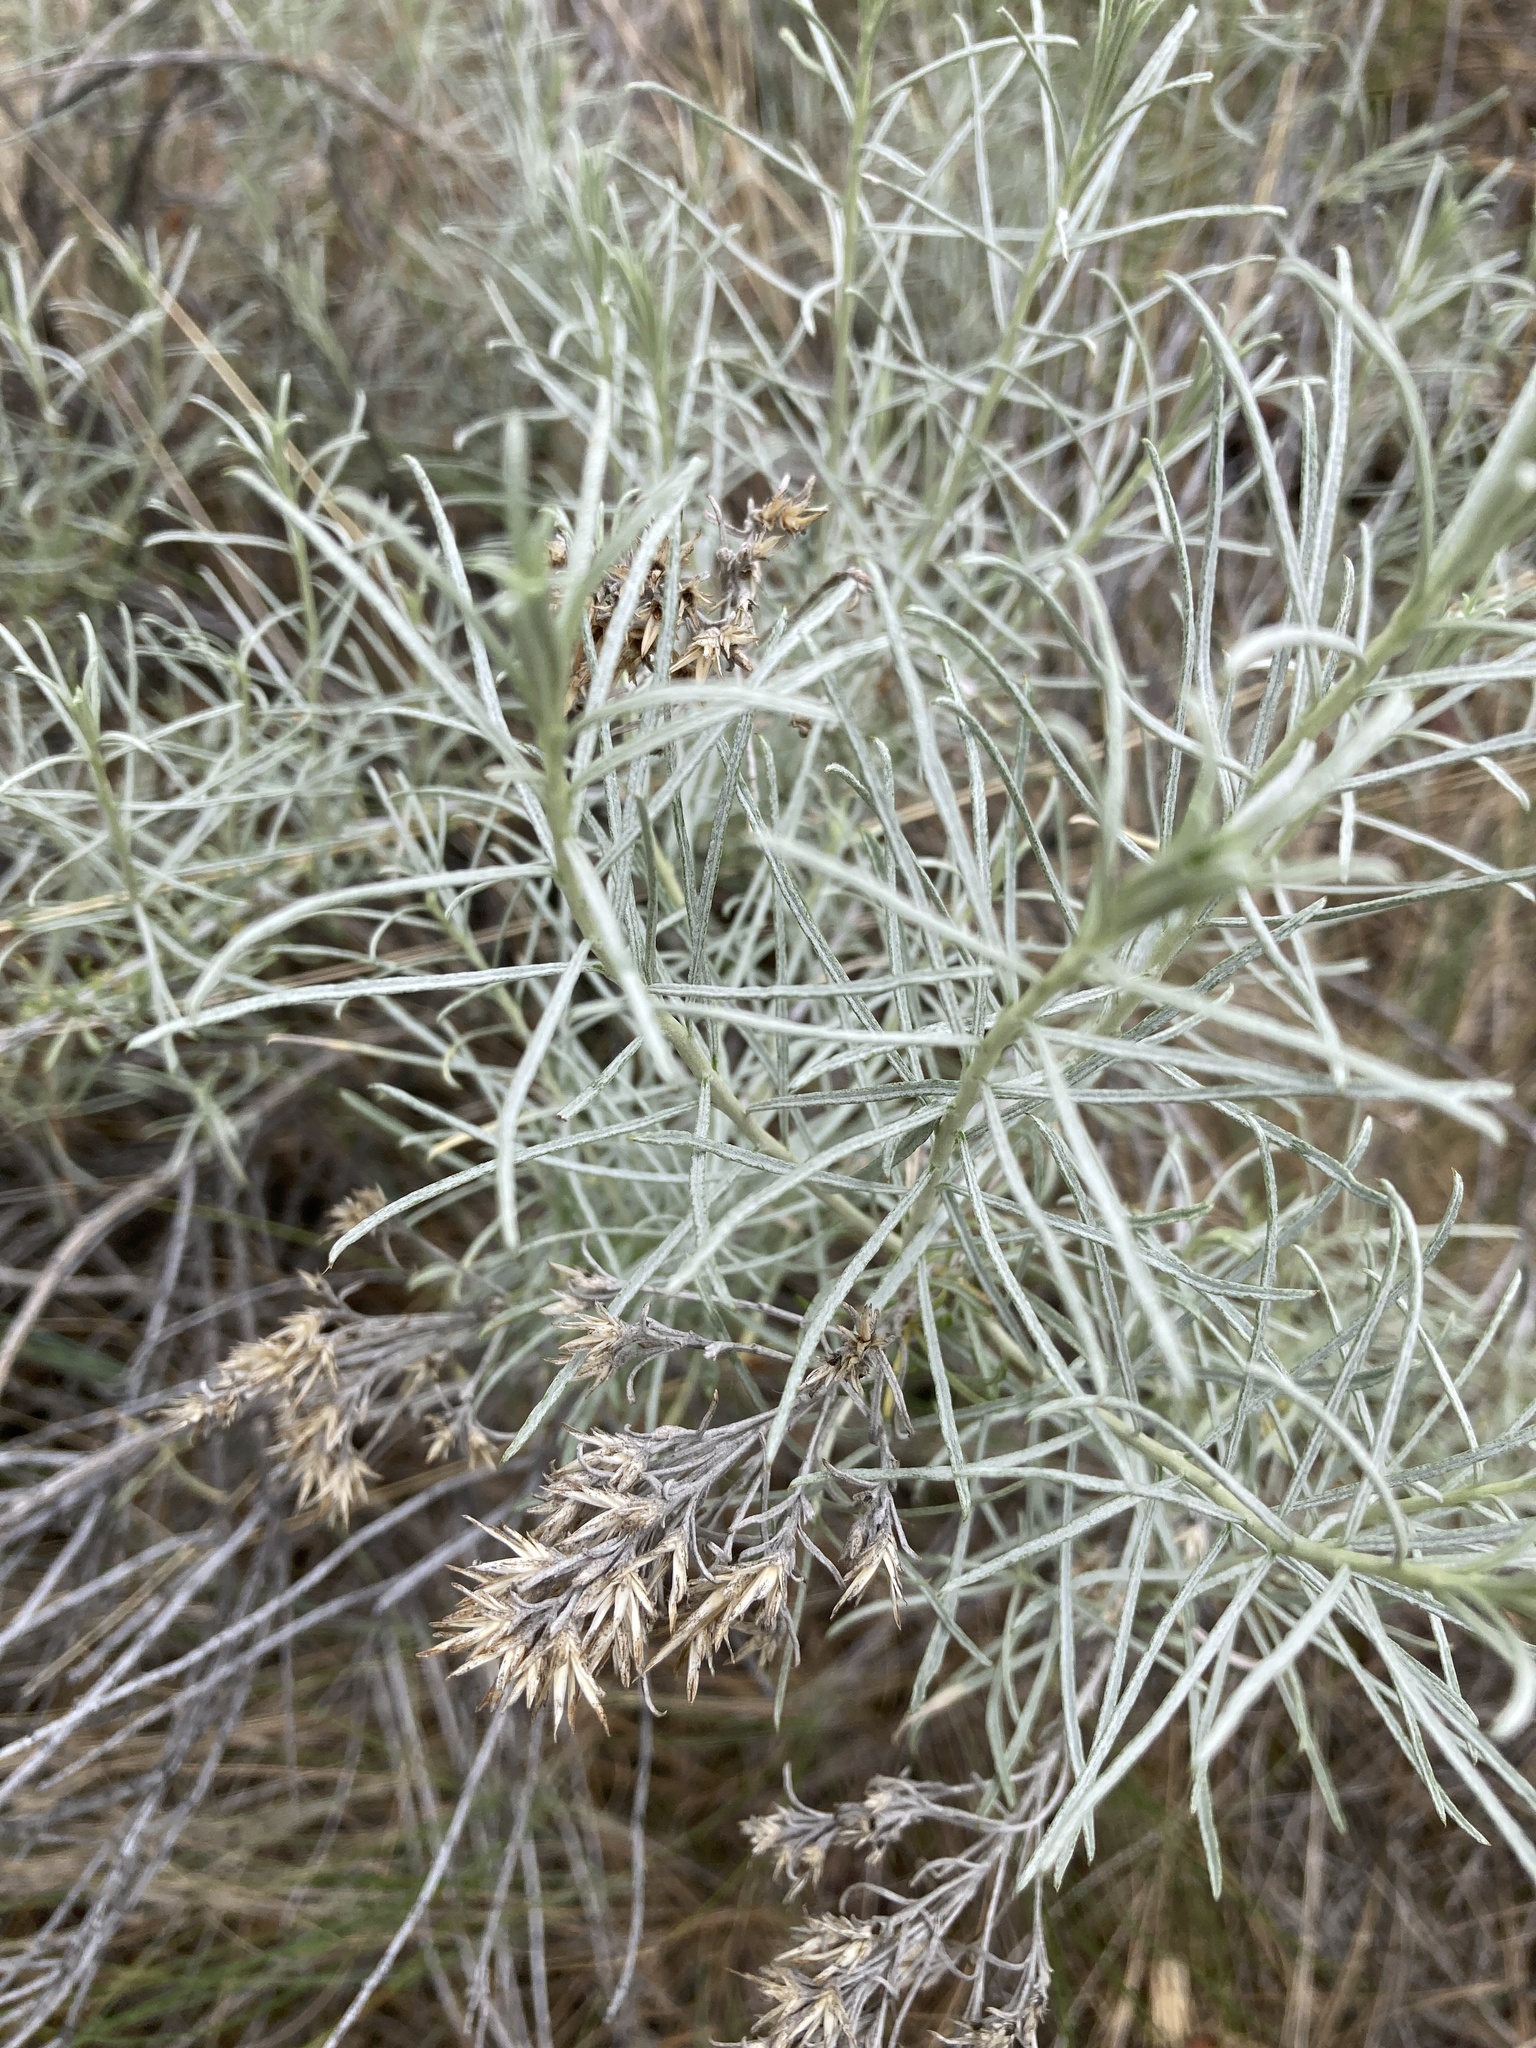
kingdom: Plantae
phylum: Tracheophyta
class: Magnoliopsida
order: Asterales
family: Asteraceae
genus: Ericameria
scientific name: Ericameria nauseosa
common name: Rubber rabbitbrush
